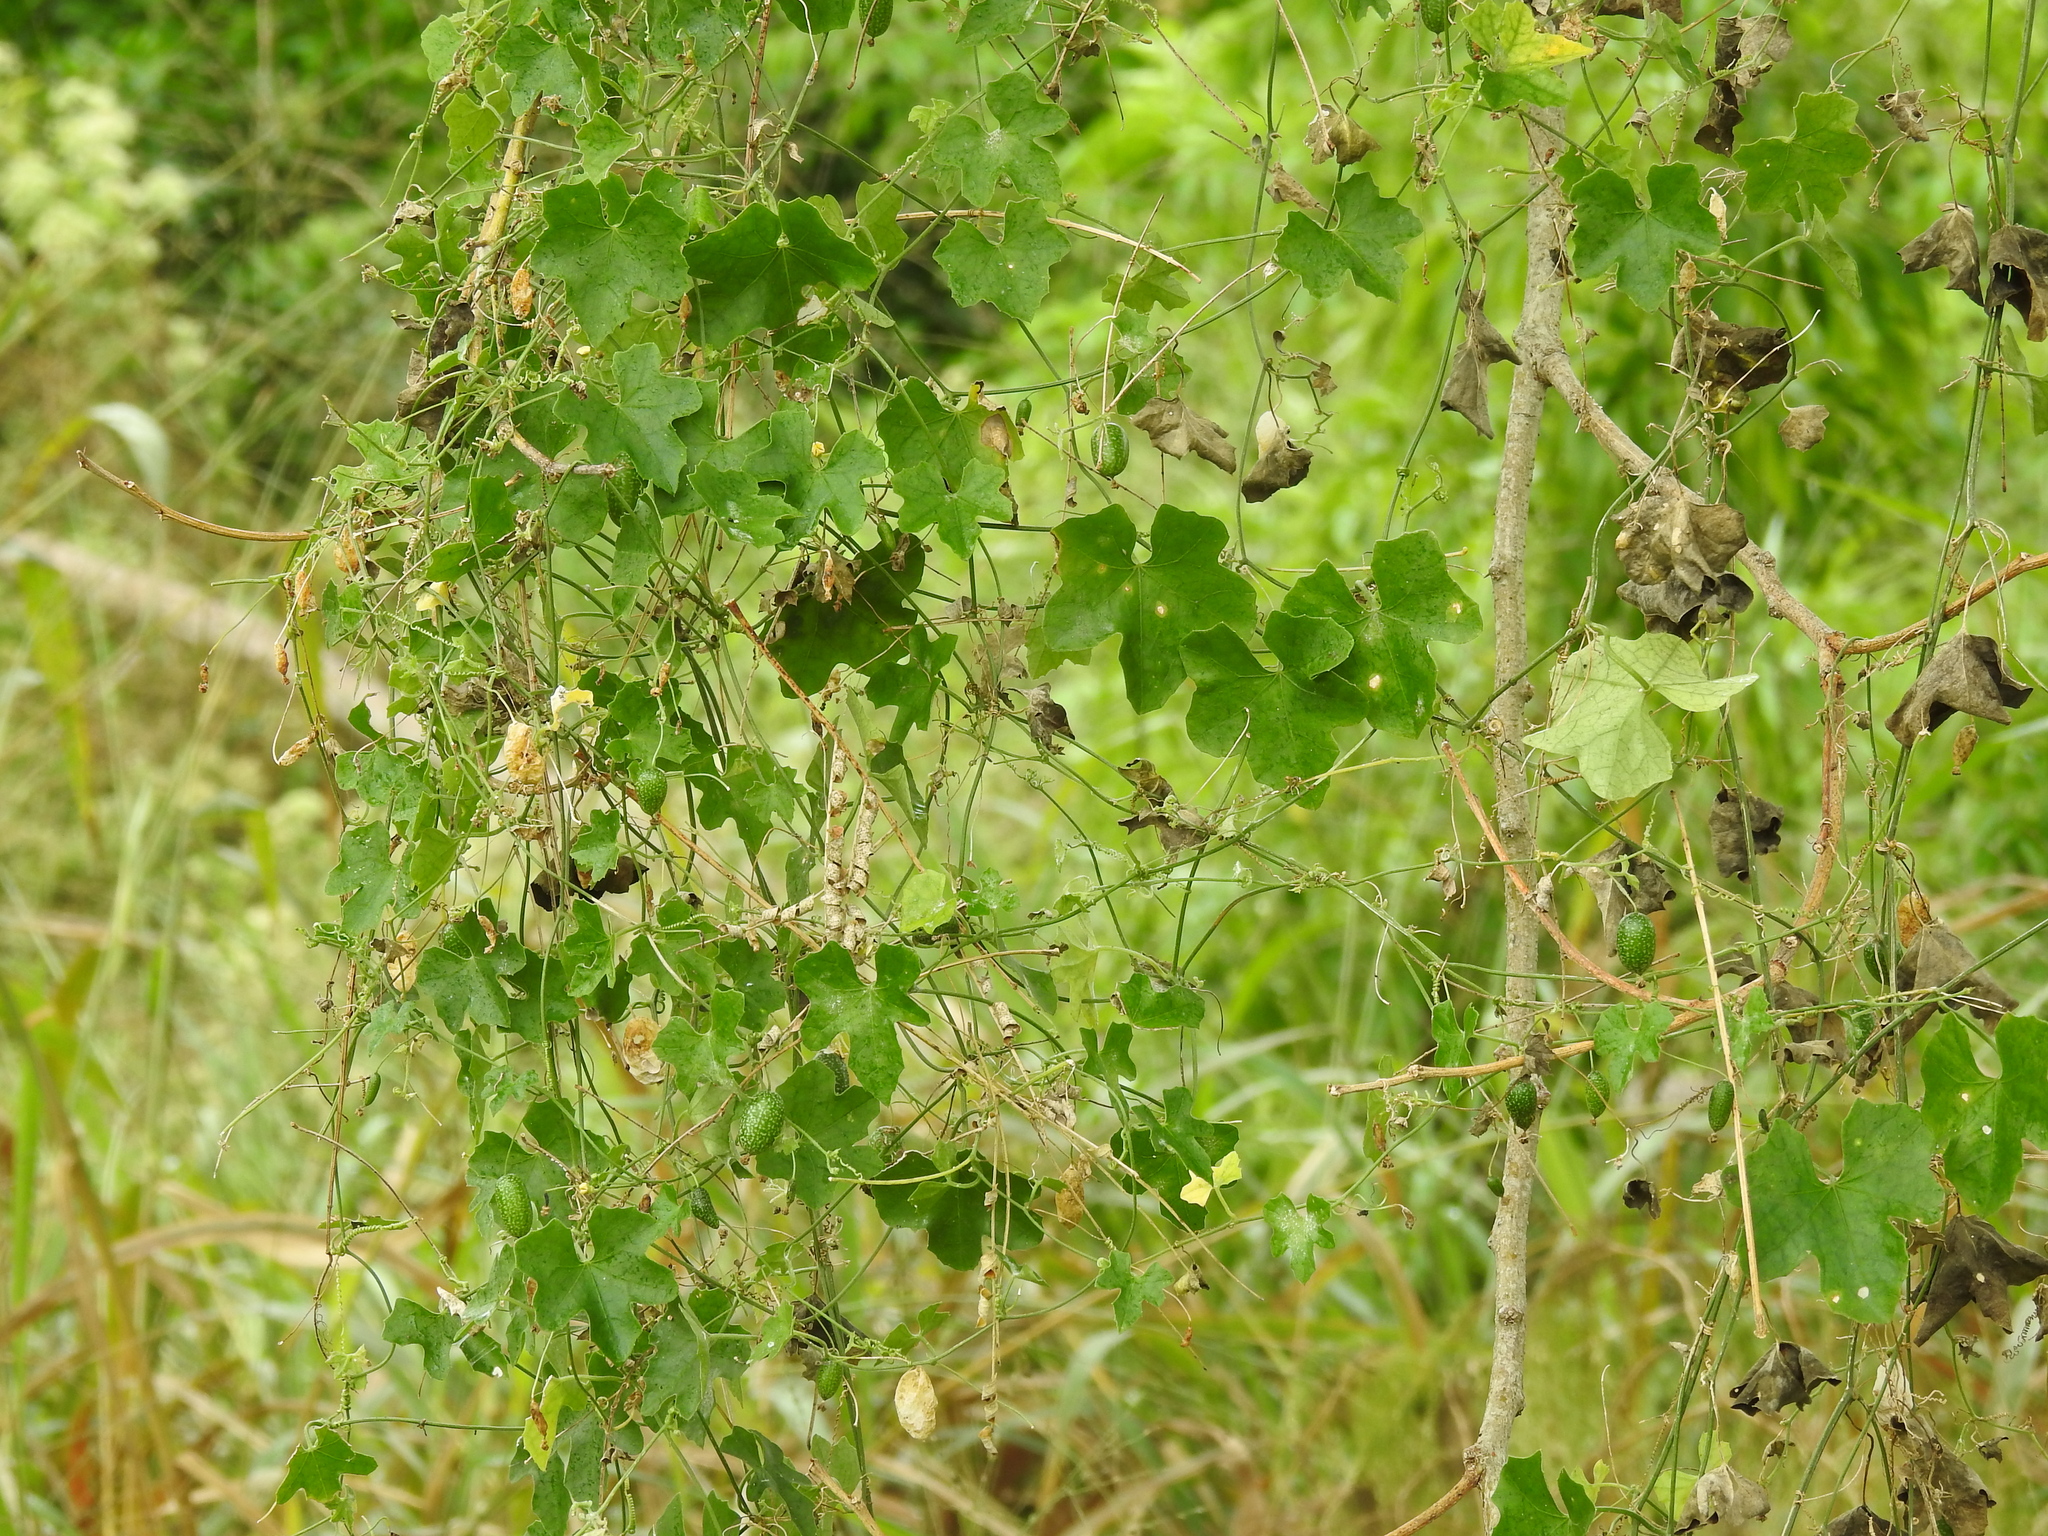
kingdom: Plantae
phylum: Tracheophyta
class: Magnoliopsida
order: Cucurbitales
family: Cucurbitaceae
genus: Melothria
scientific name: Melothria pendula
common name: Creeping-cucumber
